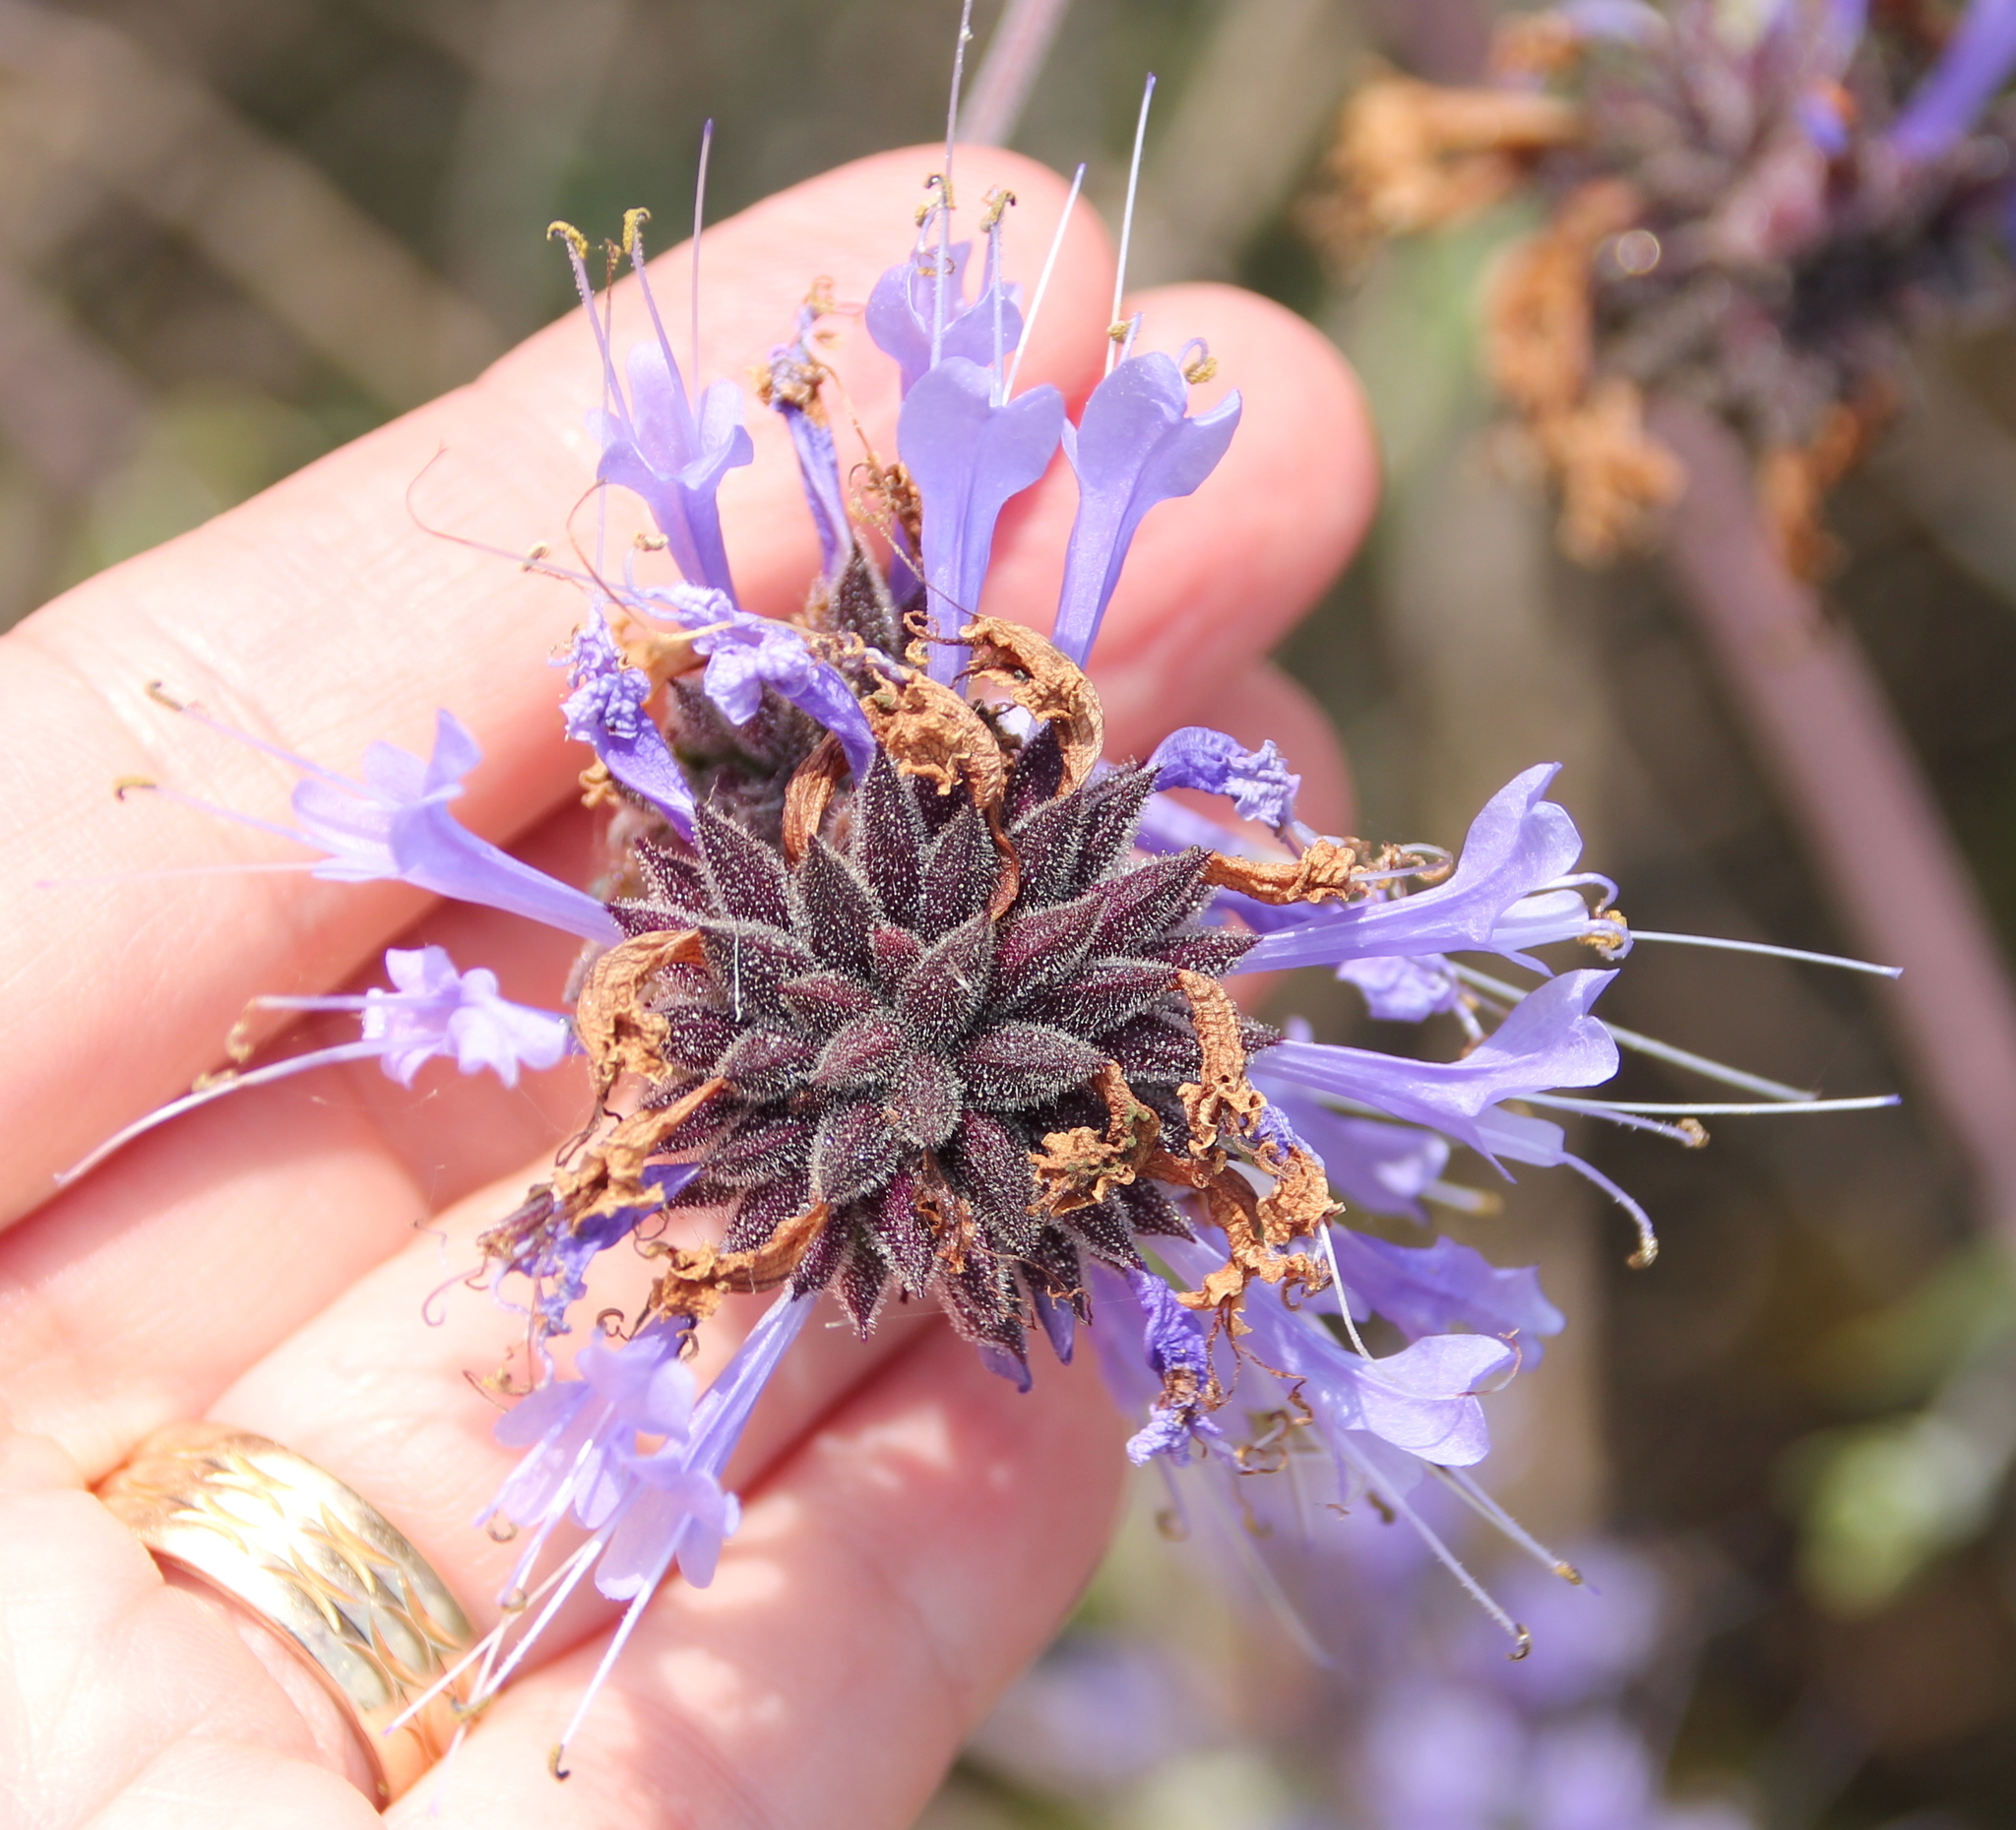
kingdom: Plantae
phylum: Tracheophyta
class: Magnoliopsida
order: Lamiales
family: Lamiaceae
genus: Salvia
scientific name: Salvia clevelandii
